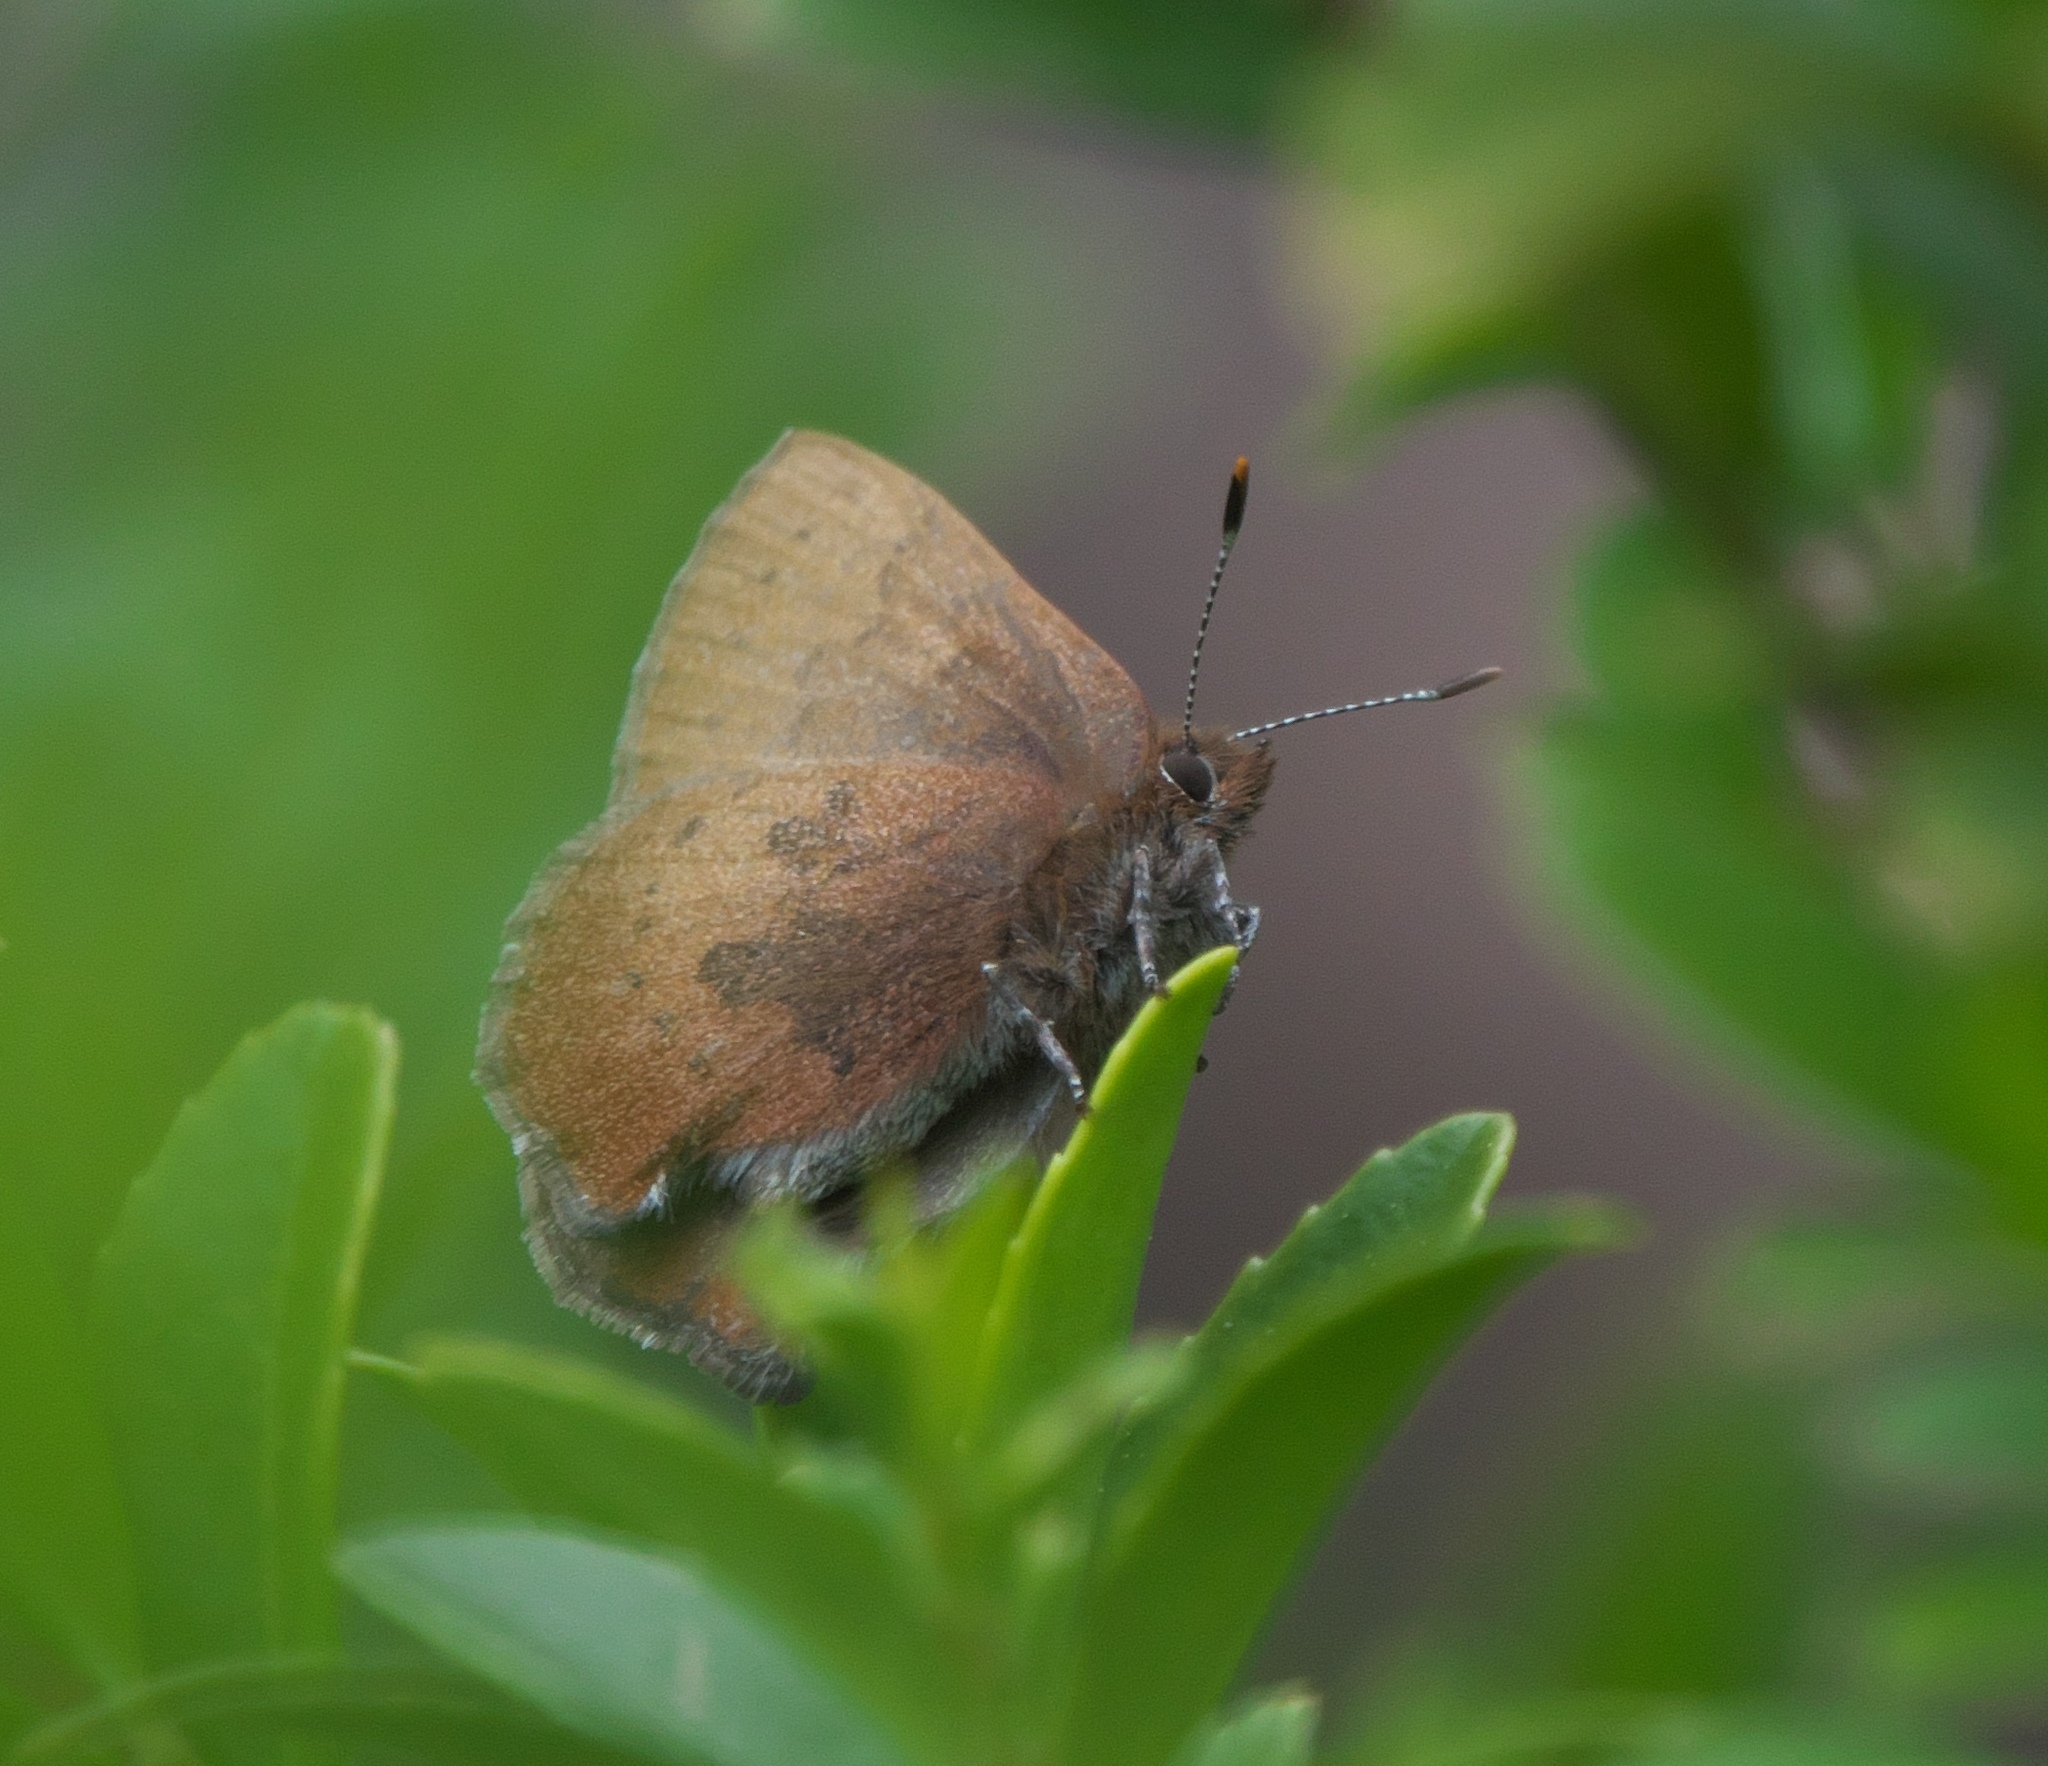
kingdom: Animalia
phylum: Arthropoda
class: Insecta
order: Lepidoptera
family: Lycaenidae
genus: Incisalia
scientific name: Incisalia irioides
